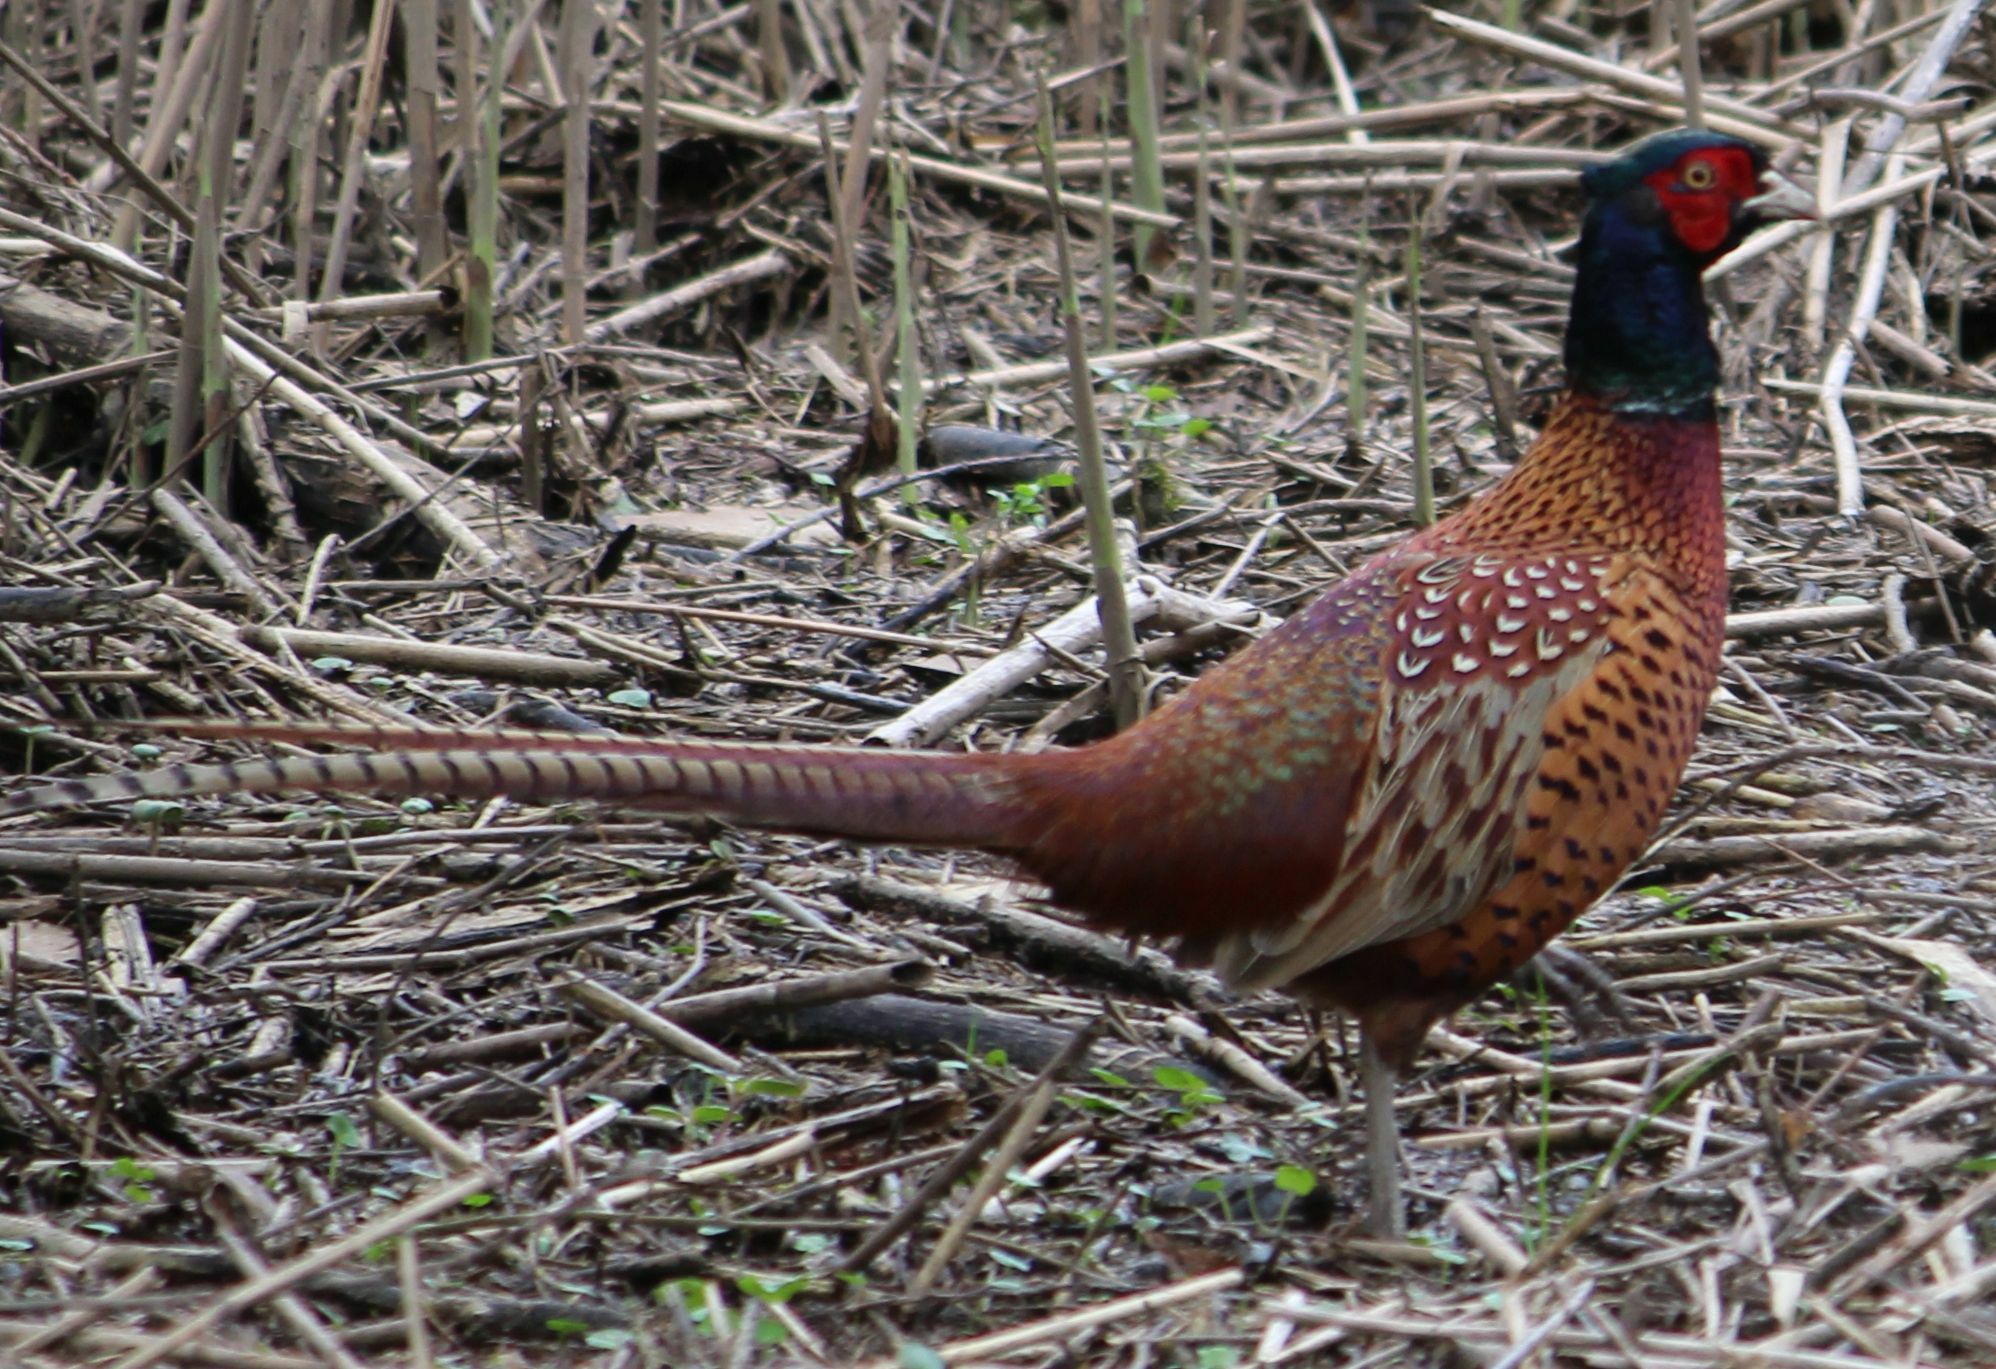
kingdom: Animalia
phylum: Chordata
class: Aves
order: Galliformes
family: Phasianidae
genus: Phasianus
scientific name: Phasianus colchicus
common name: Common pheasant
